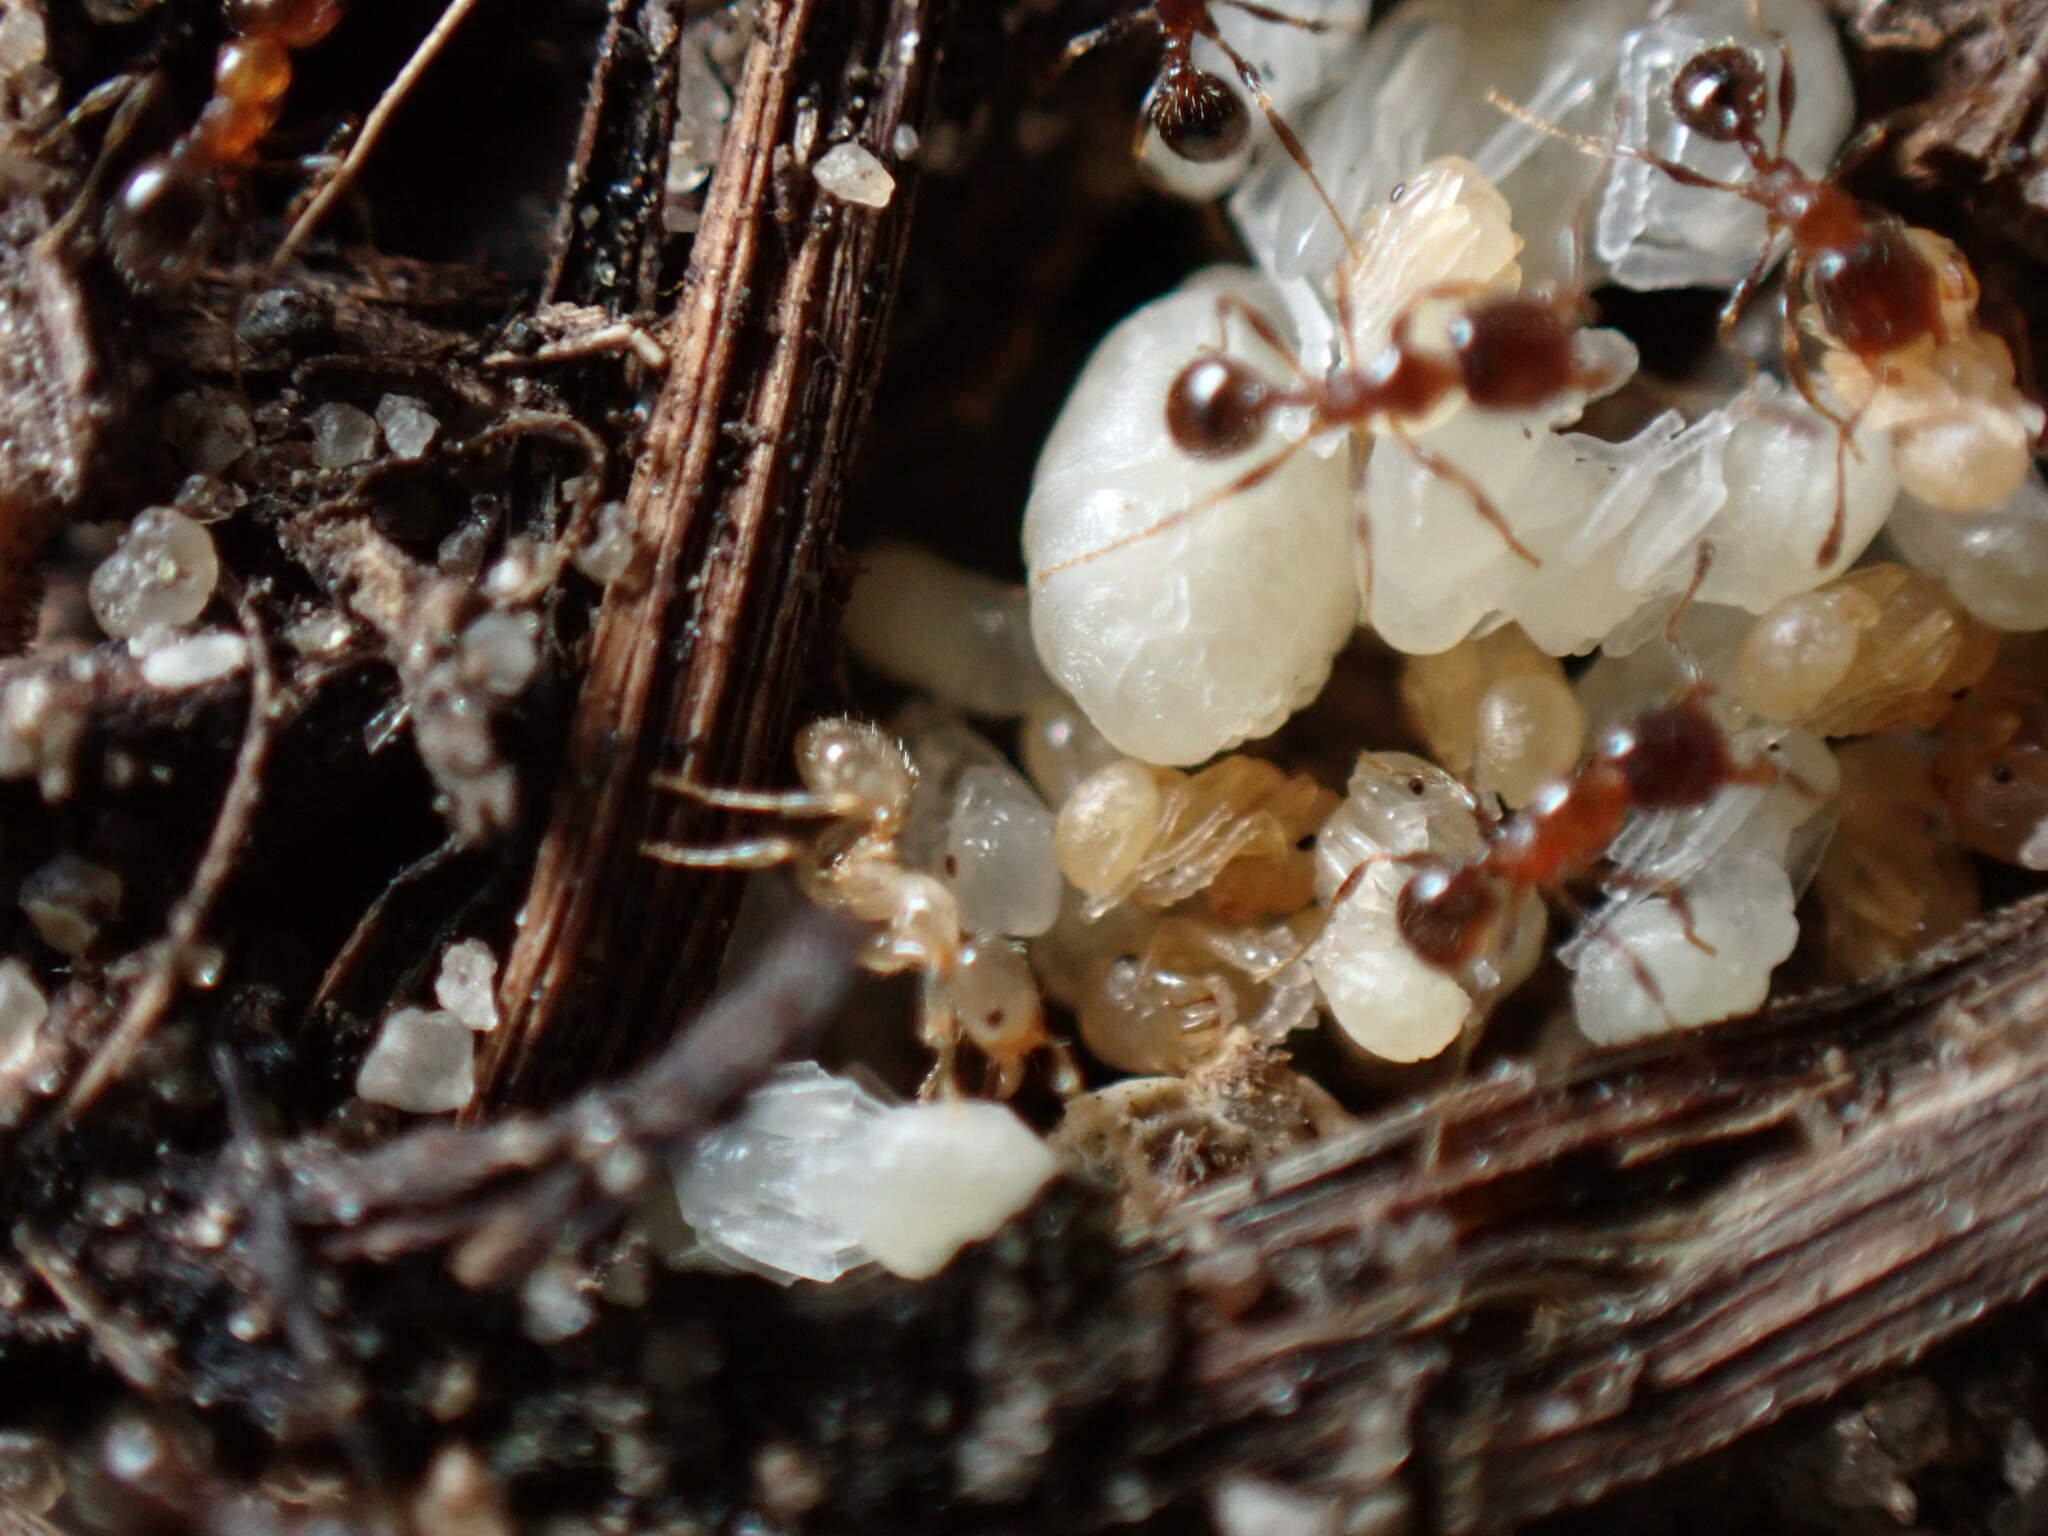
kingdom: Animalia
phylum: Arthropoda
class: Insecta
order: Hymenoptera
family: Formicidae
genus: Pheidole
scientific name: Pheidole bicarinata
